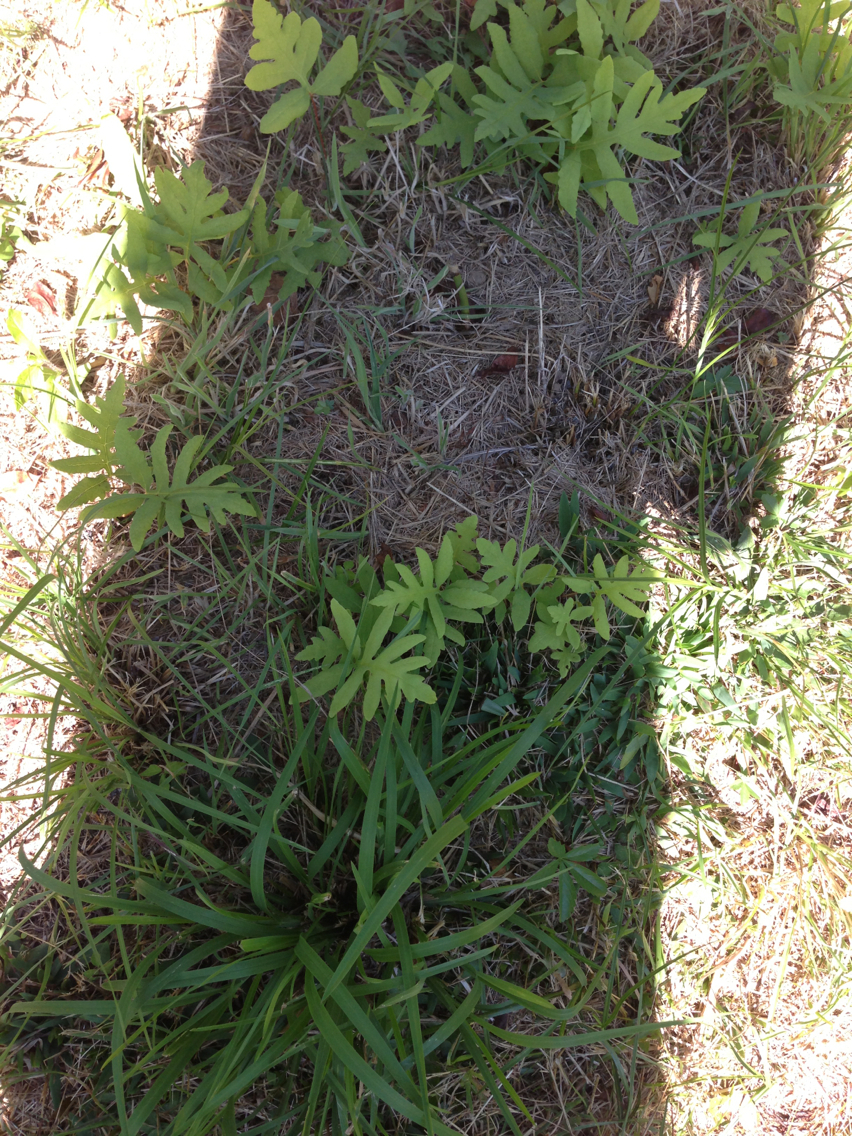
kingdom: Plantae
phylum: Tracheophyta
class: Polypodiopsida
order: Polypodiales
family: Onocleaceae
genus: Onoclea
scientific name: Onoclea sensibilis
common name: Sensitive fern
